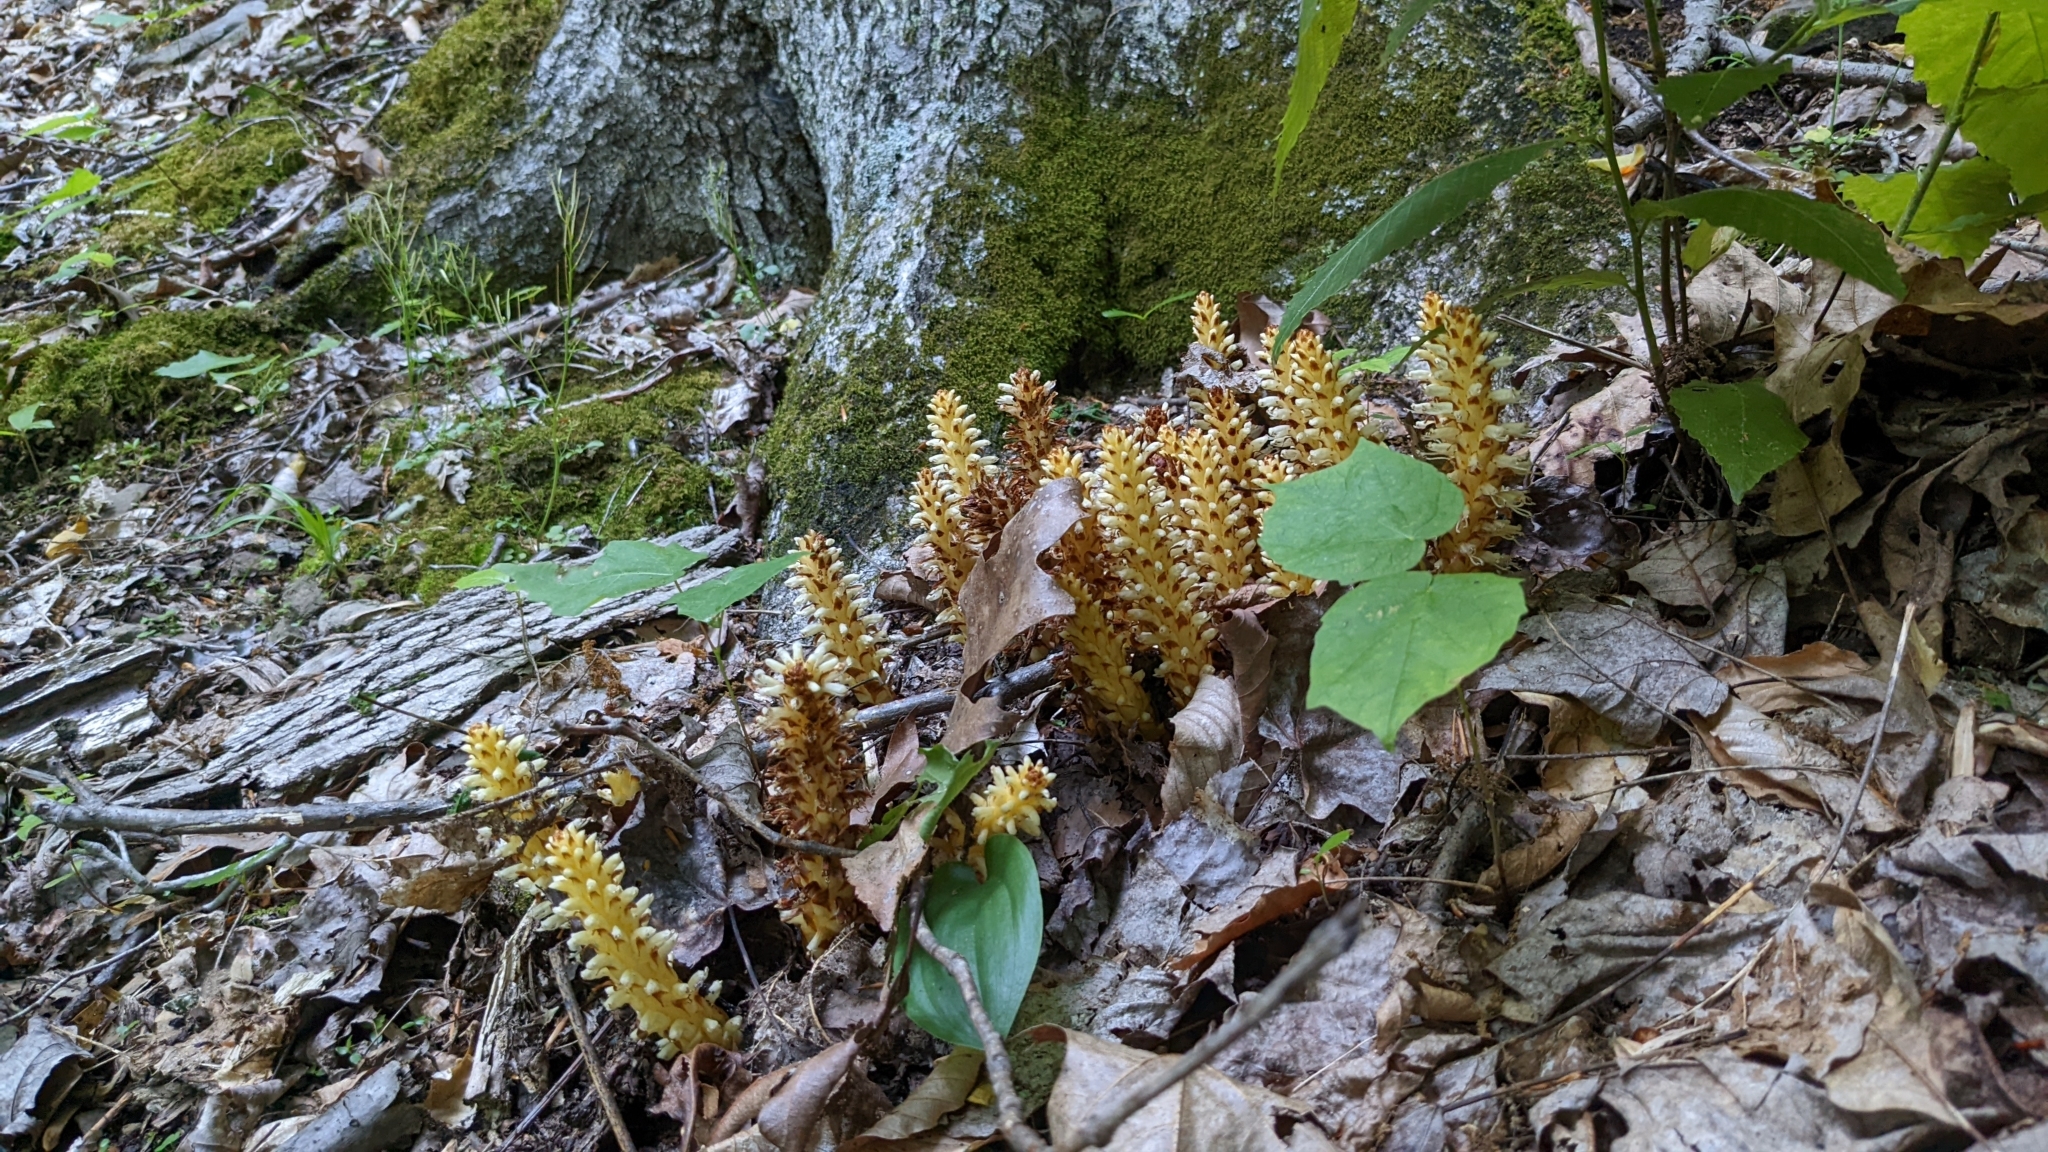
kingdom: Plantae
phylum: Tracheophyta
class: Magnoliopsida
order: Lamiales
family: Orobanchaceae
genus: Conopholis
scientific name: Conopholis americana
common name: American cancer-root
